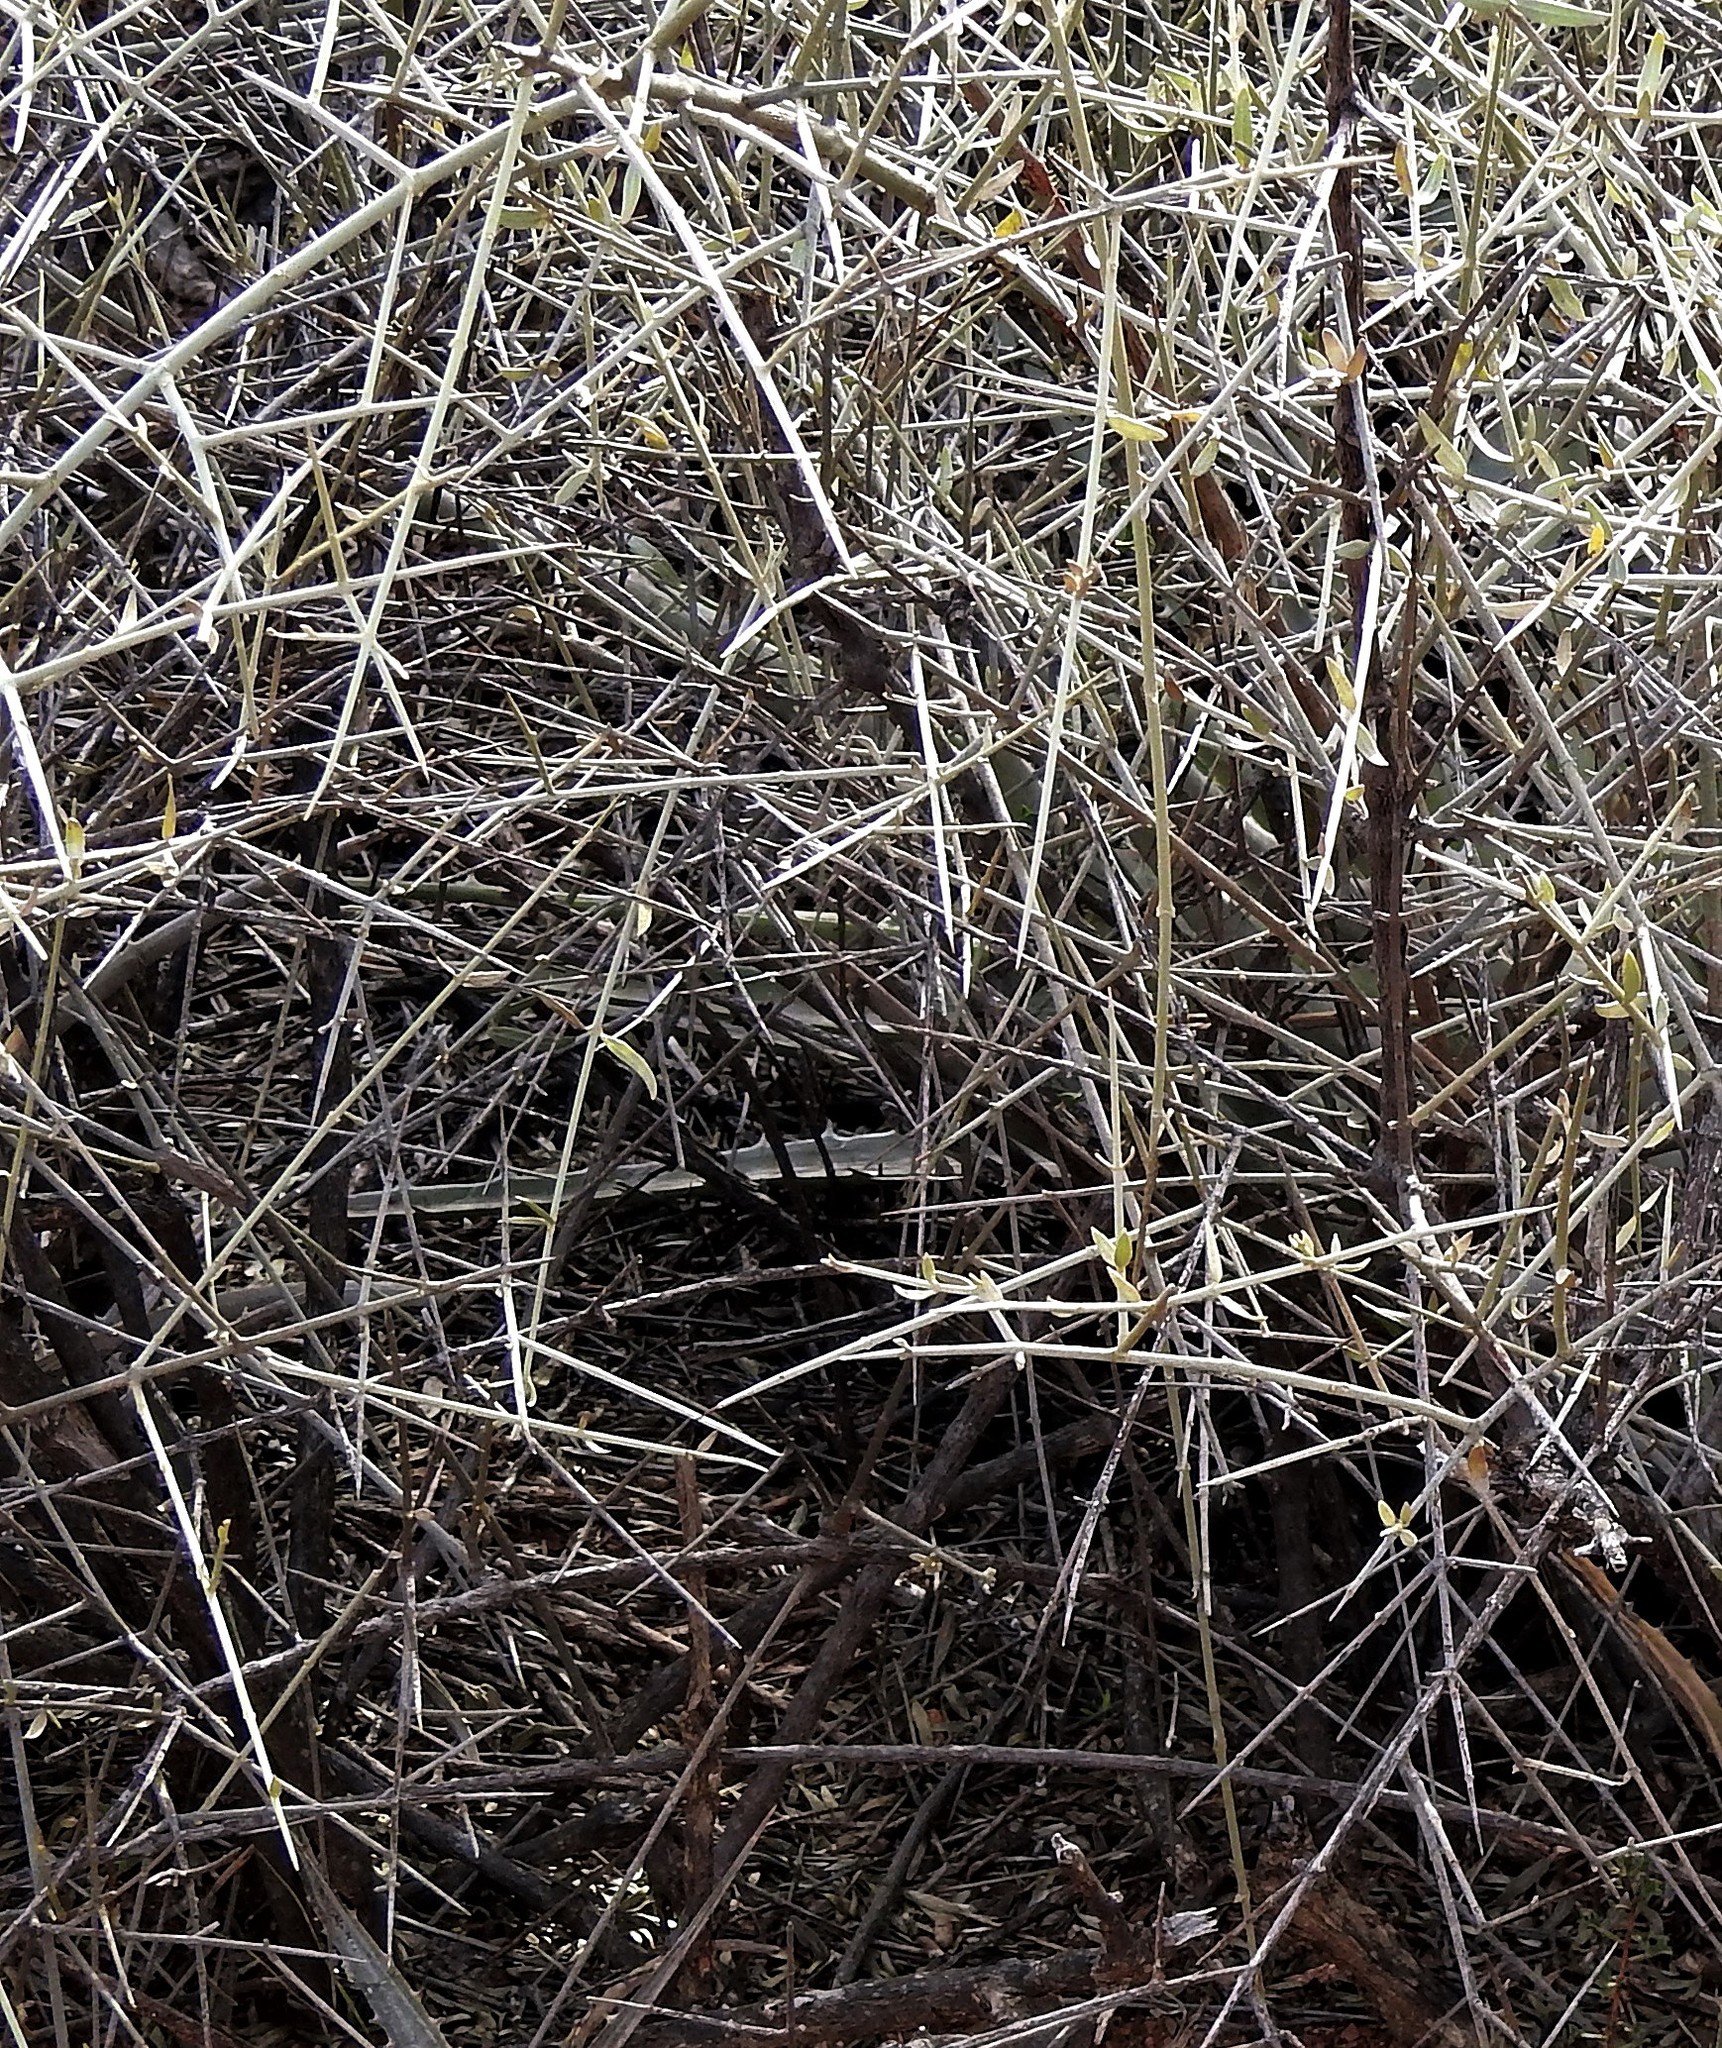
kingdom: Plantae
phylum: Tracheophyta
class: Magnoliopsida
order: Malpighiales
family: Malpighiaceae
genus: Tricomaria
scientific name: Tricomaria usillo
